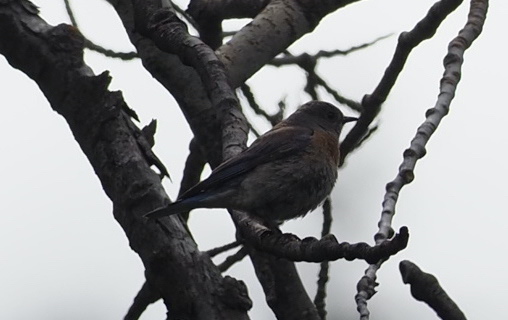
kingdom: Animalia
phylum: Chordata
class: Aves
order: Passeriformes
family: Turdidae
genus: Sialia
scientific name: Sialia mexicana
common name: Western bluebird
